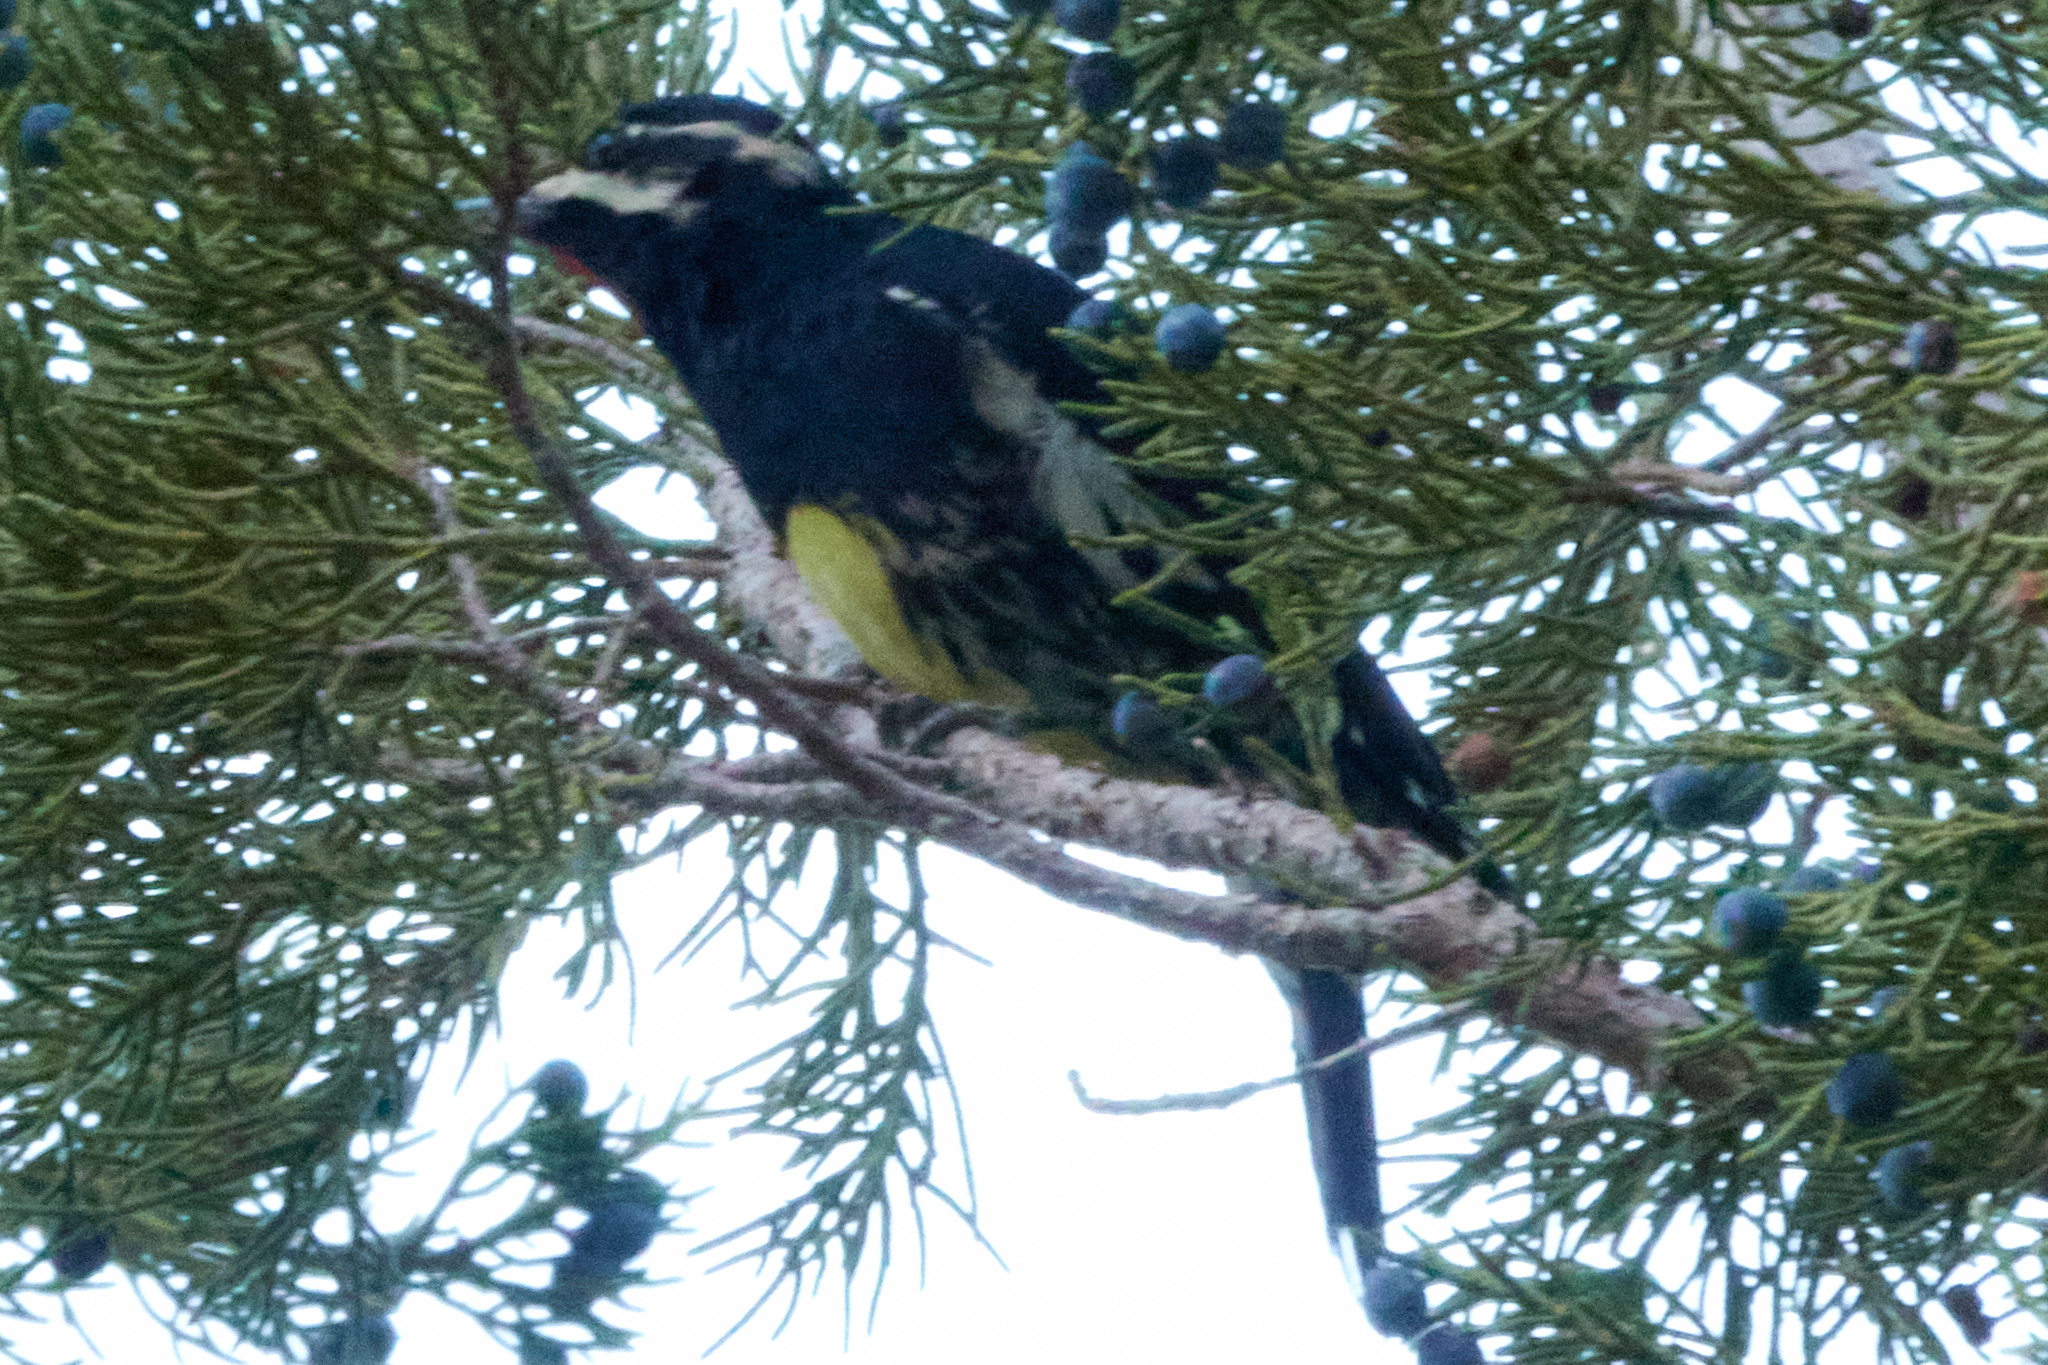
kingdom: Animalia
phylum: Chordata
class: Aves
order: Piciformes
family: Picidae
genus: Sphyrapicus
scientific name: Sphyrapicus thyroideus
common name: Williamson's sapsucker
